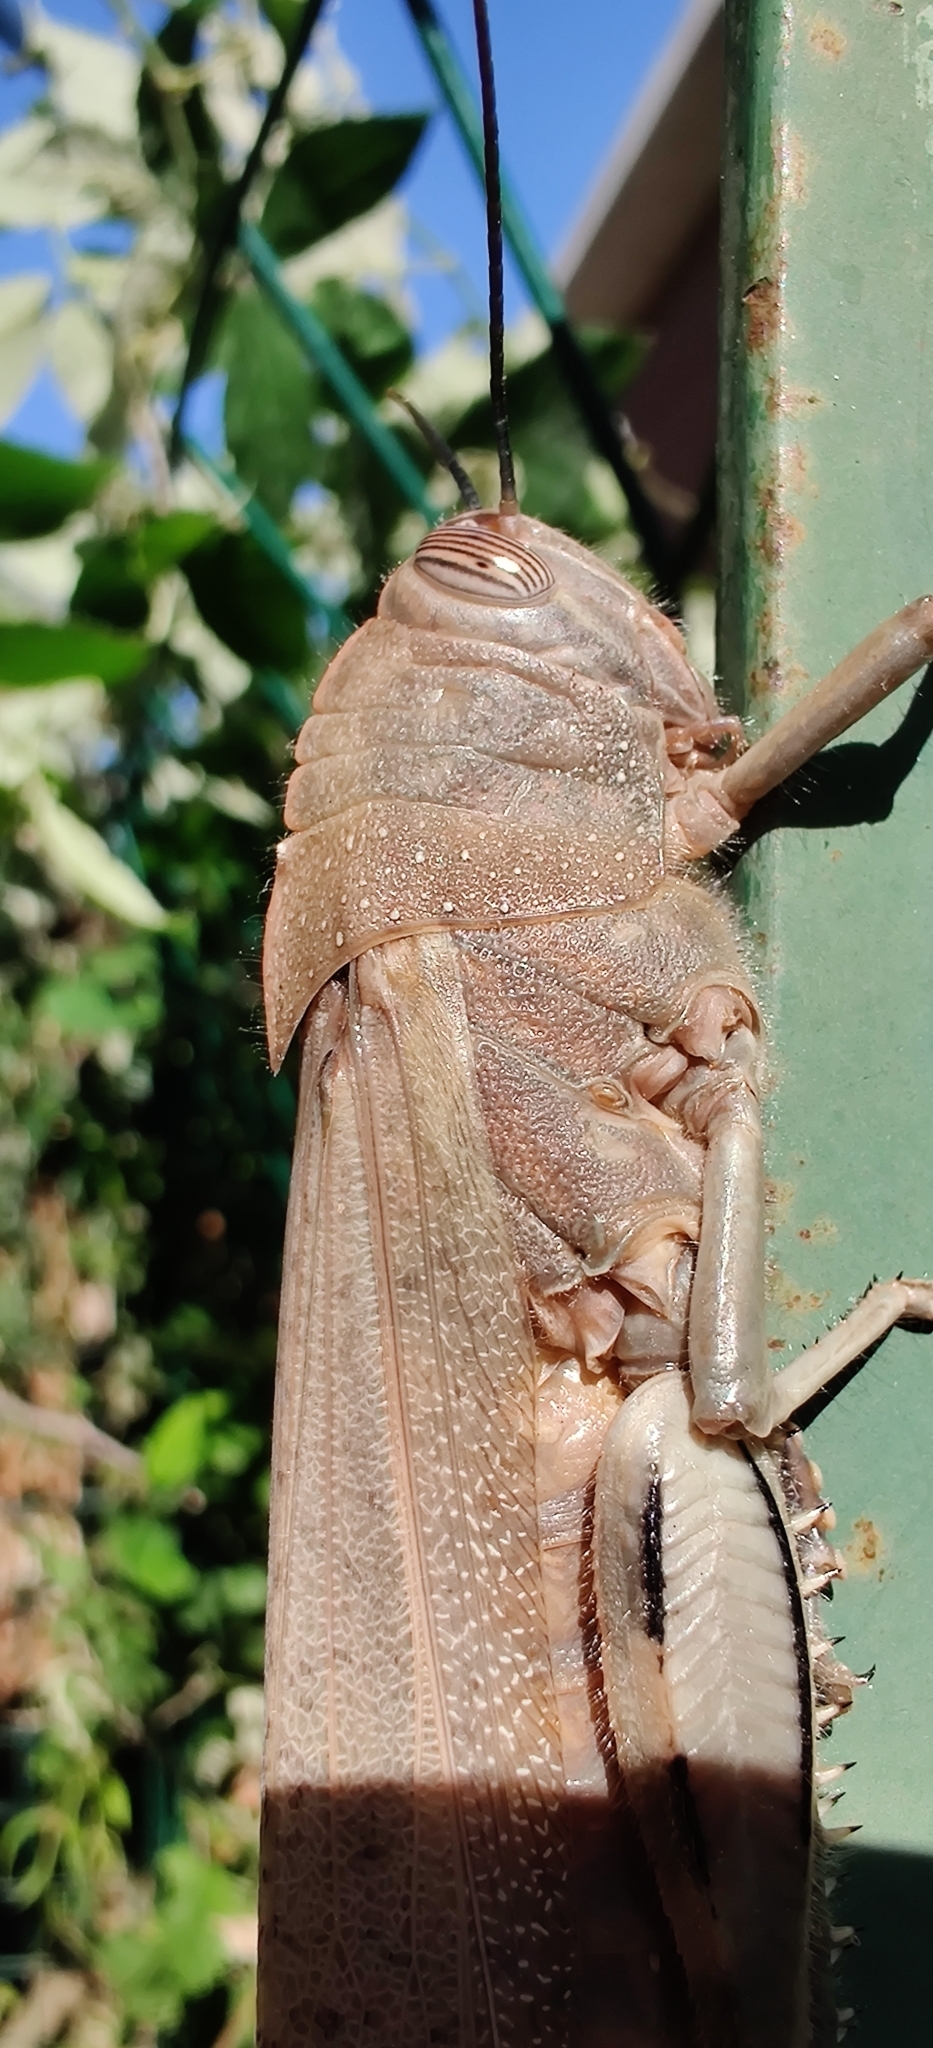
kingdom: Animalia
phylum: Arthropoda
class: Insecta
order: Orthoptera
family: Acrididae
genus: Anacridium
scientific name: Anacridium aegyptium
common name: Egyptian grasshopper
